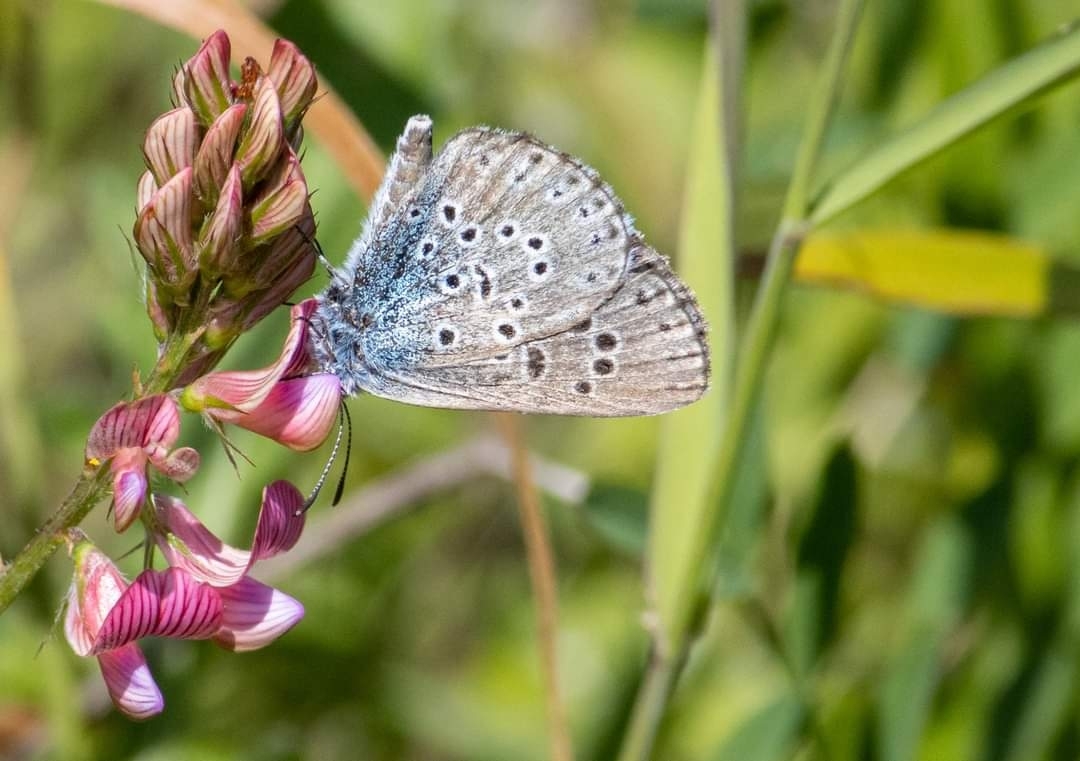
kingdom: Animalia
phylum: Arthropoda
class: Insecta
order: Lepidoptera
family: Lycaenidae
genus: Maculinea
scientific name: Maculinea arion
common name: Large blue
